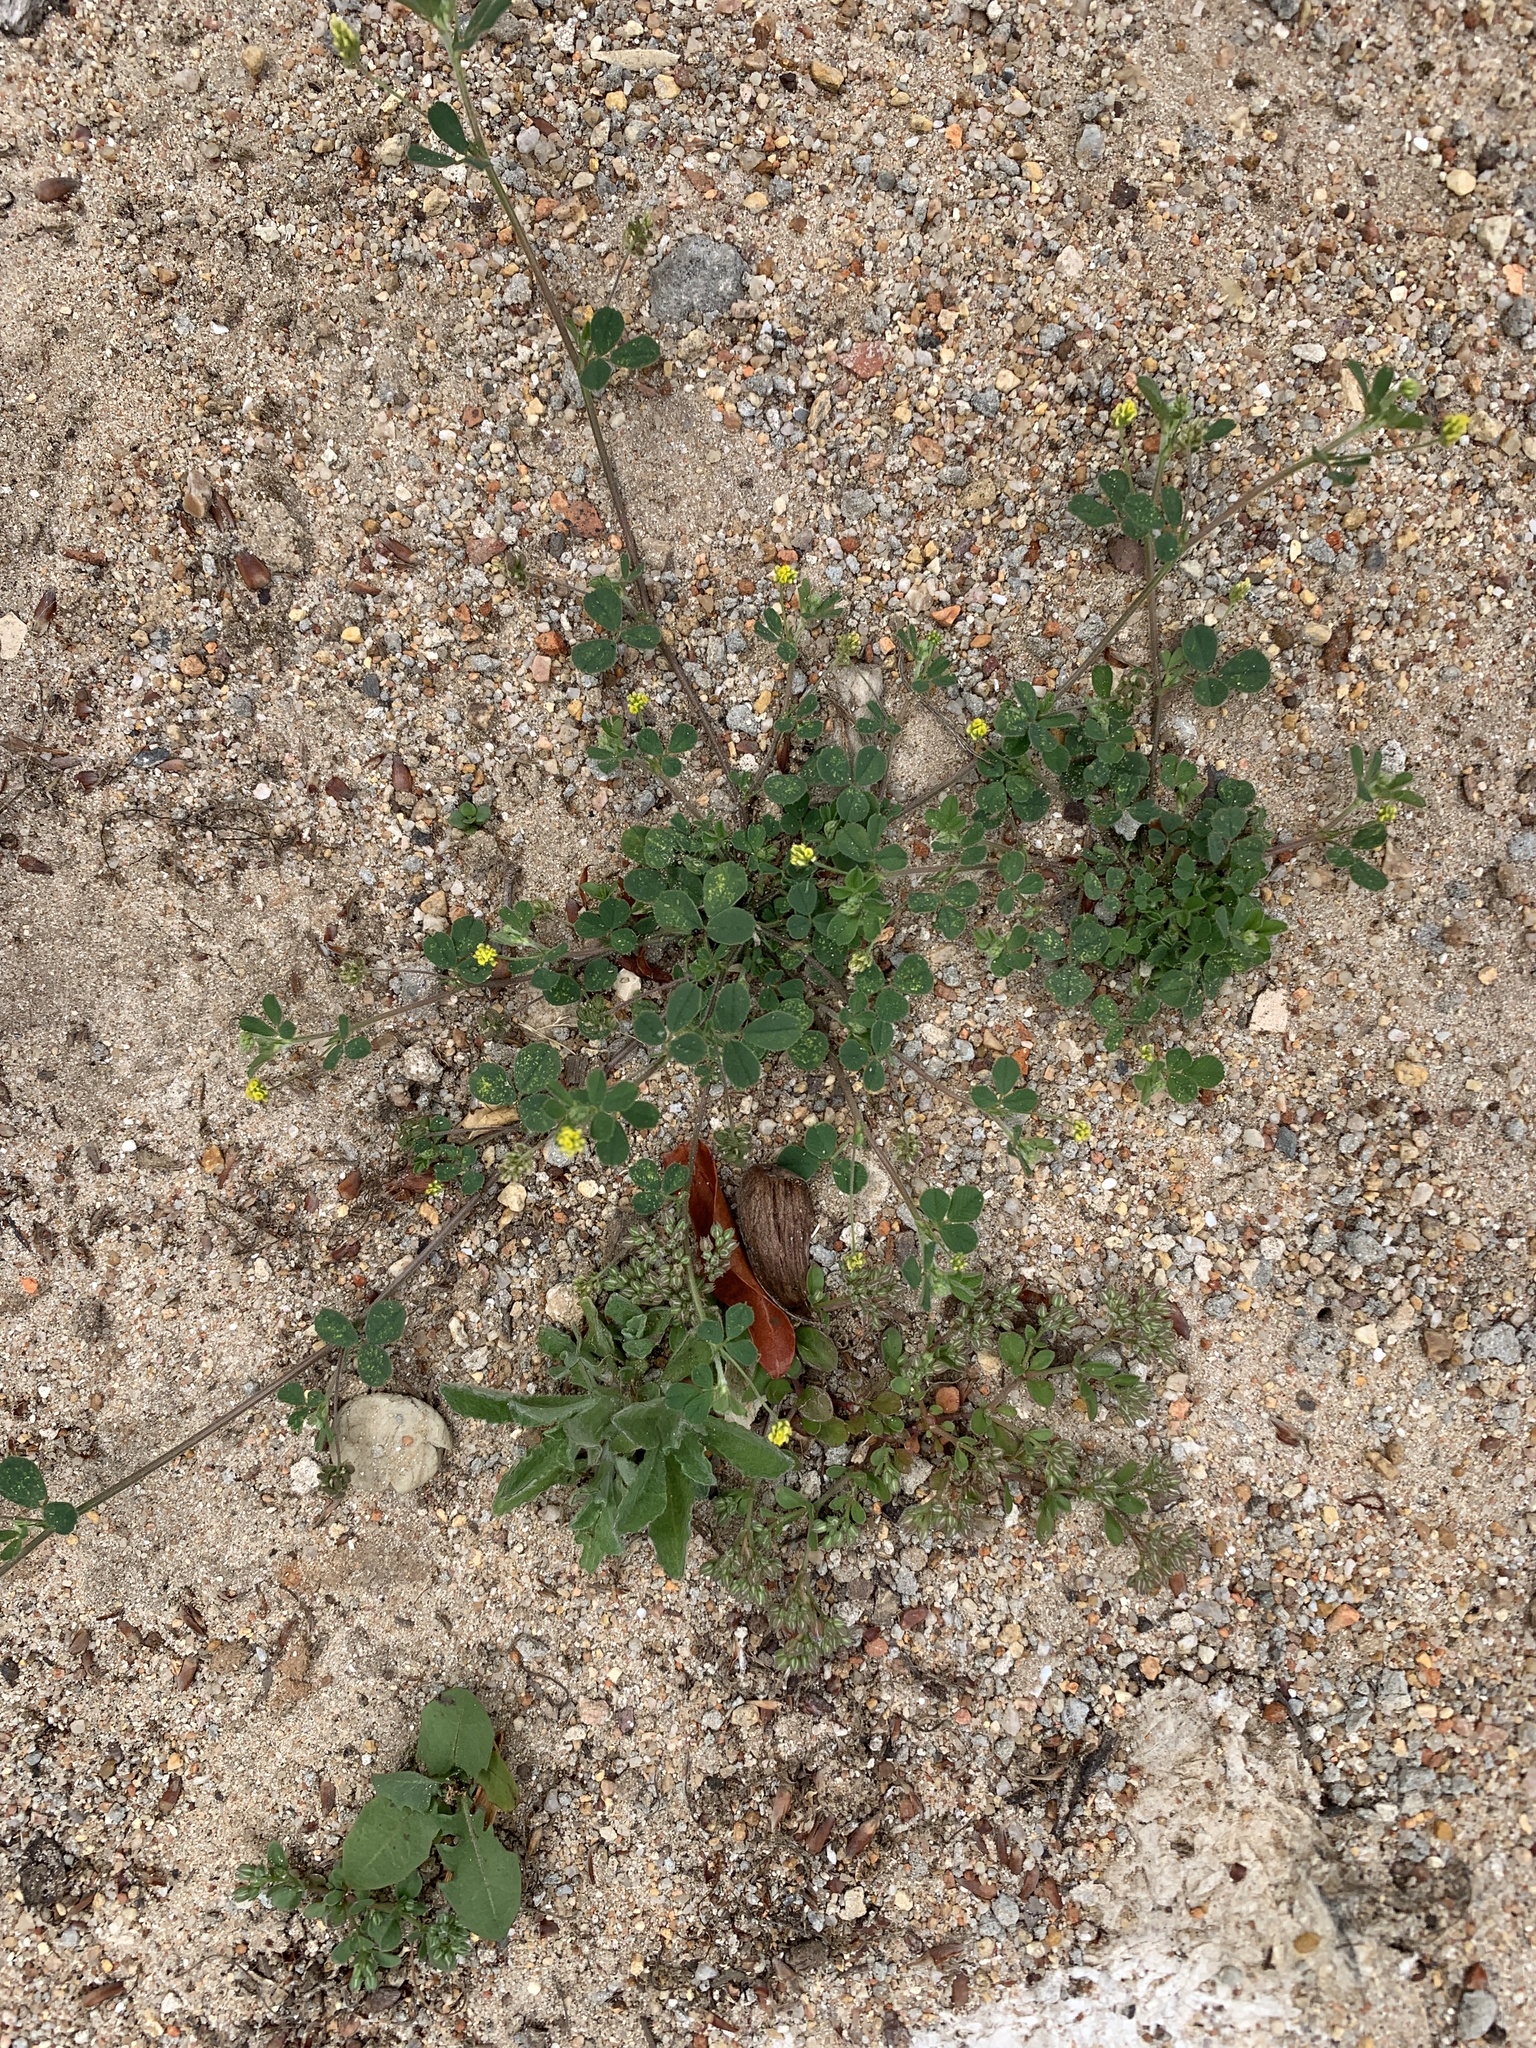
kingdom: Plantae
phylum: Tracheophyta
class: Magnoliopsida
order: Fabales
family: Fabaceae
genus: Medicago
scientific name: Medicago lupulina
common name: Black medick
